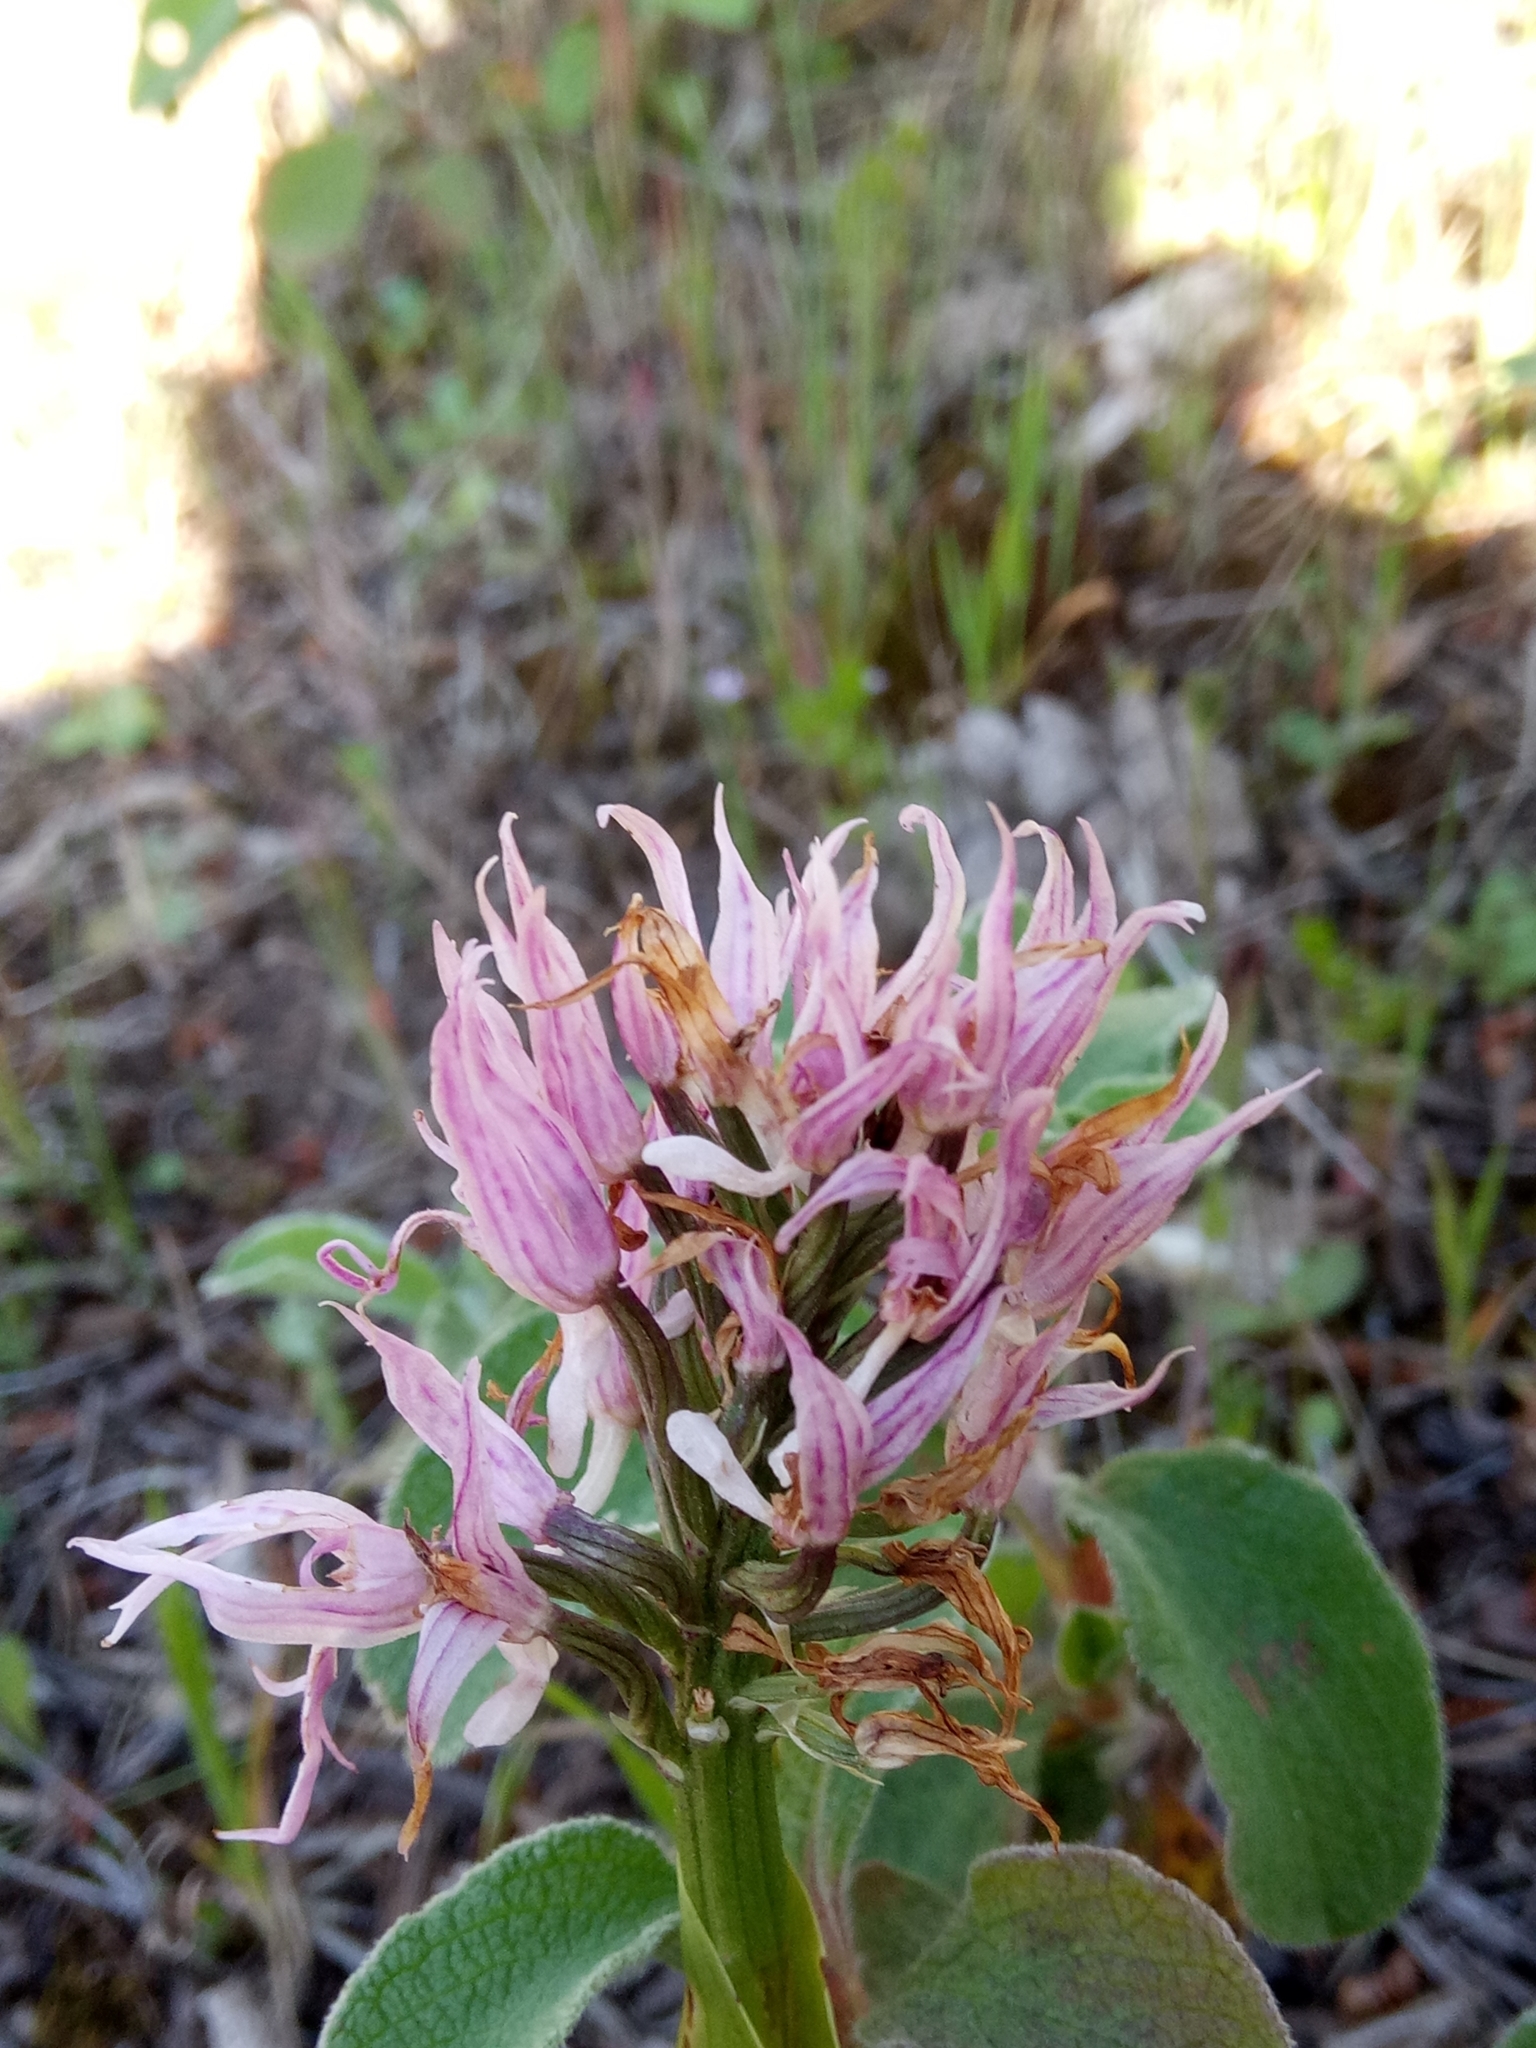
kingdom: Plantae
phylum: Tracheophyta
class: Liliopsida
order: Asparagales
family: Orchidaceae
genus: Orchis
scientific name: Orchis italica
